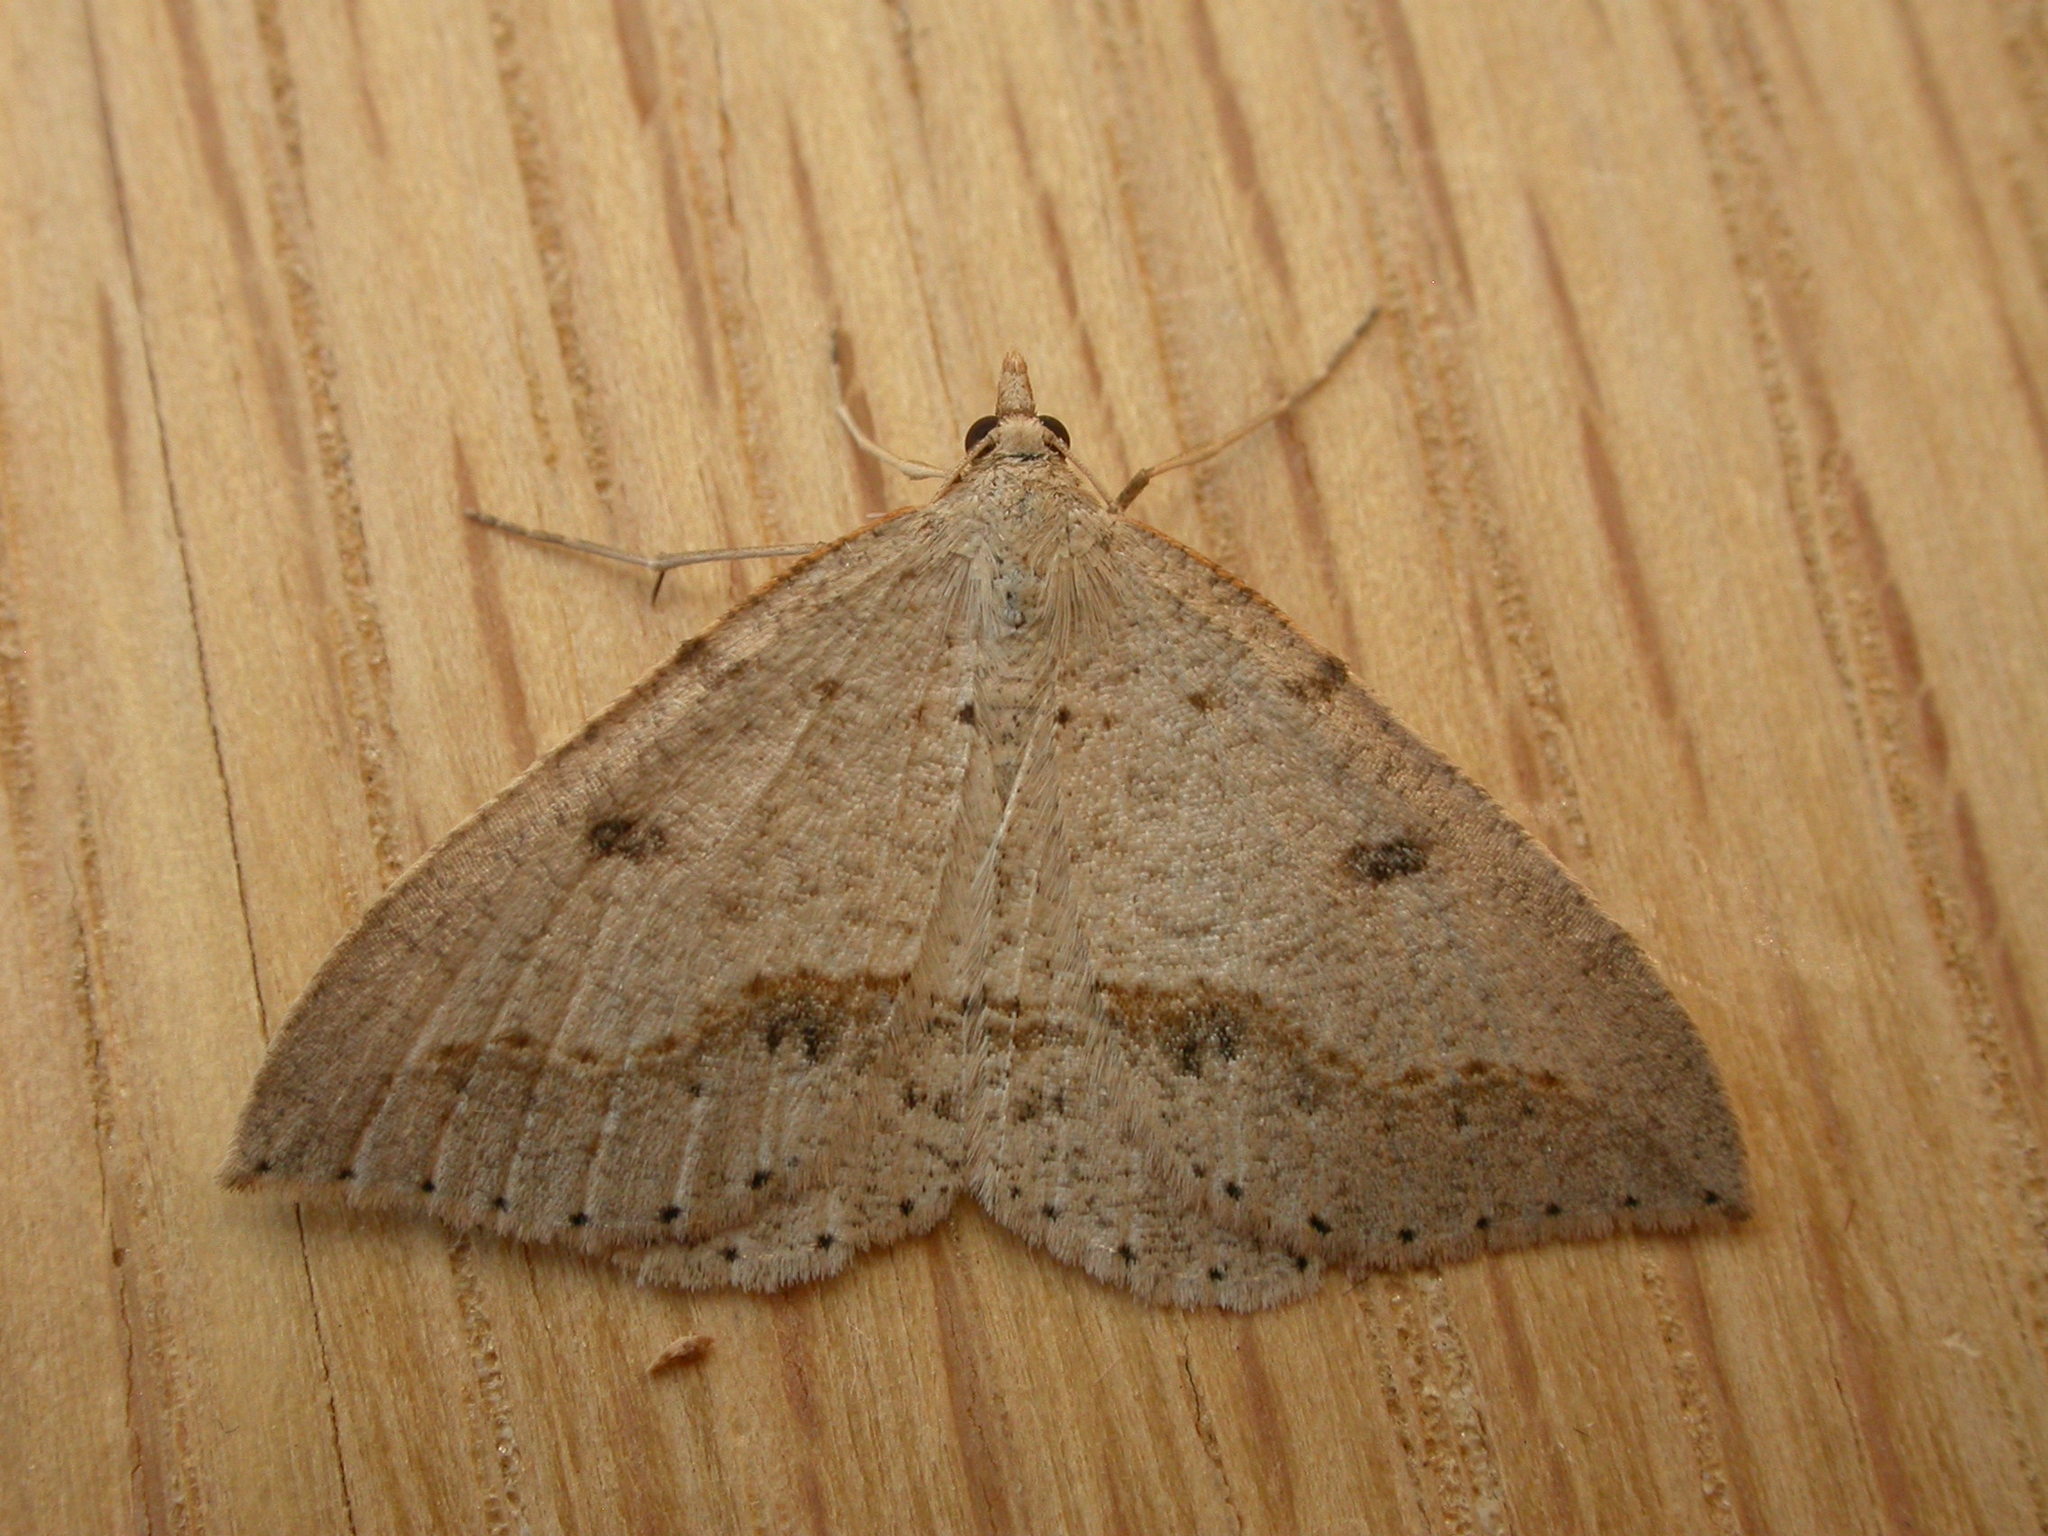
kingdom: Animalia
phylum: Arthropoda
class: Insecta
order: Lepidoptera
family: Geometridae
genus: Taxeotis
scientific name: Taxeotis stereospila
